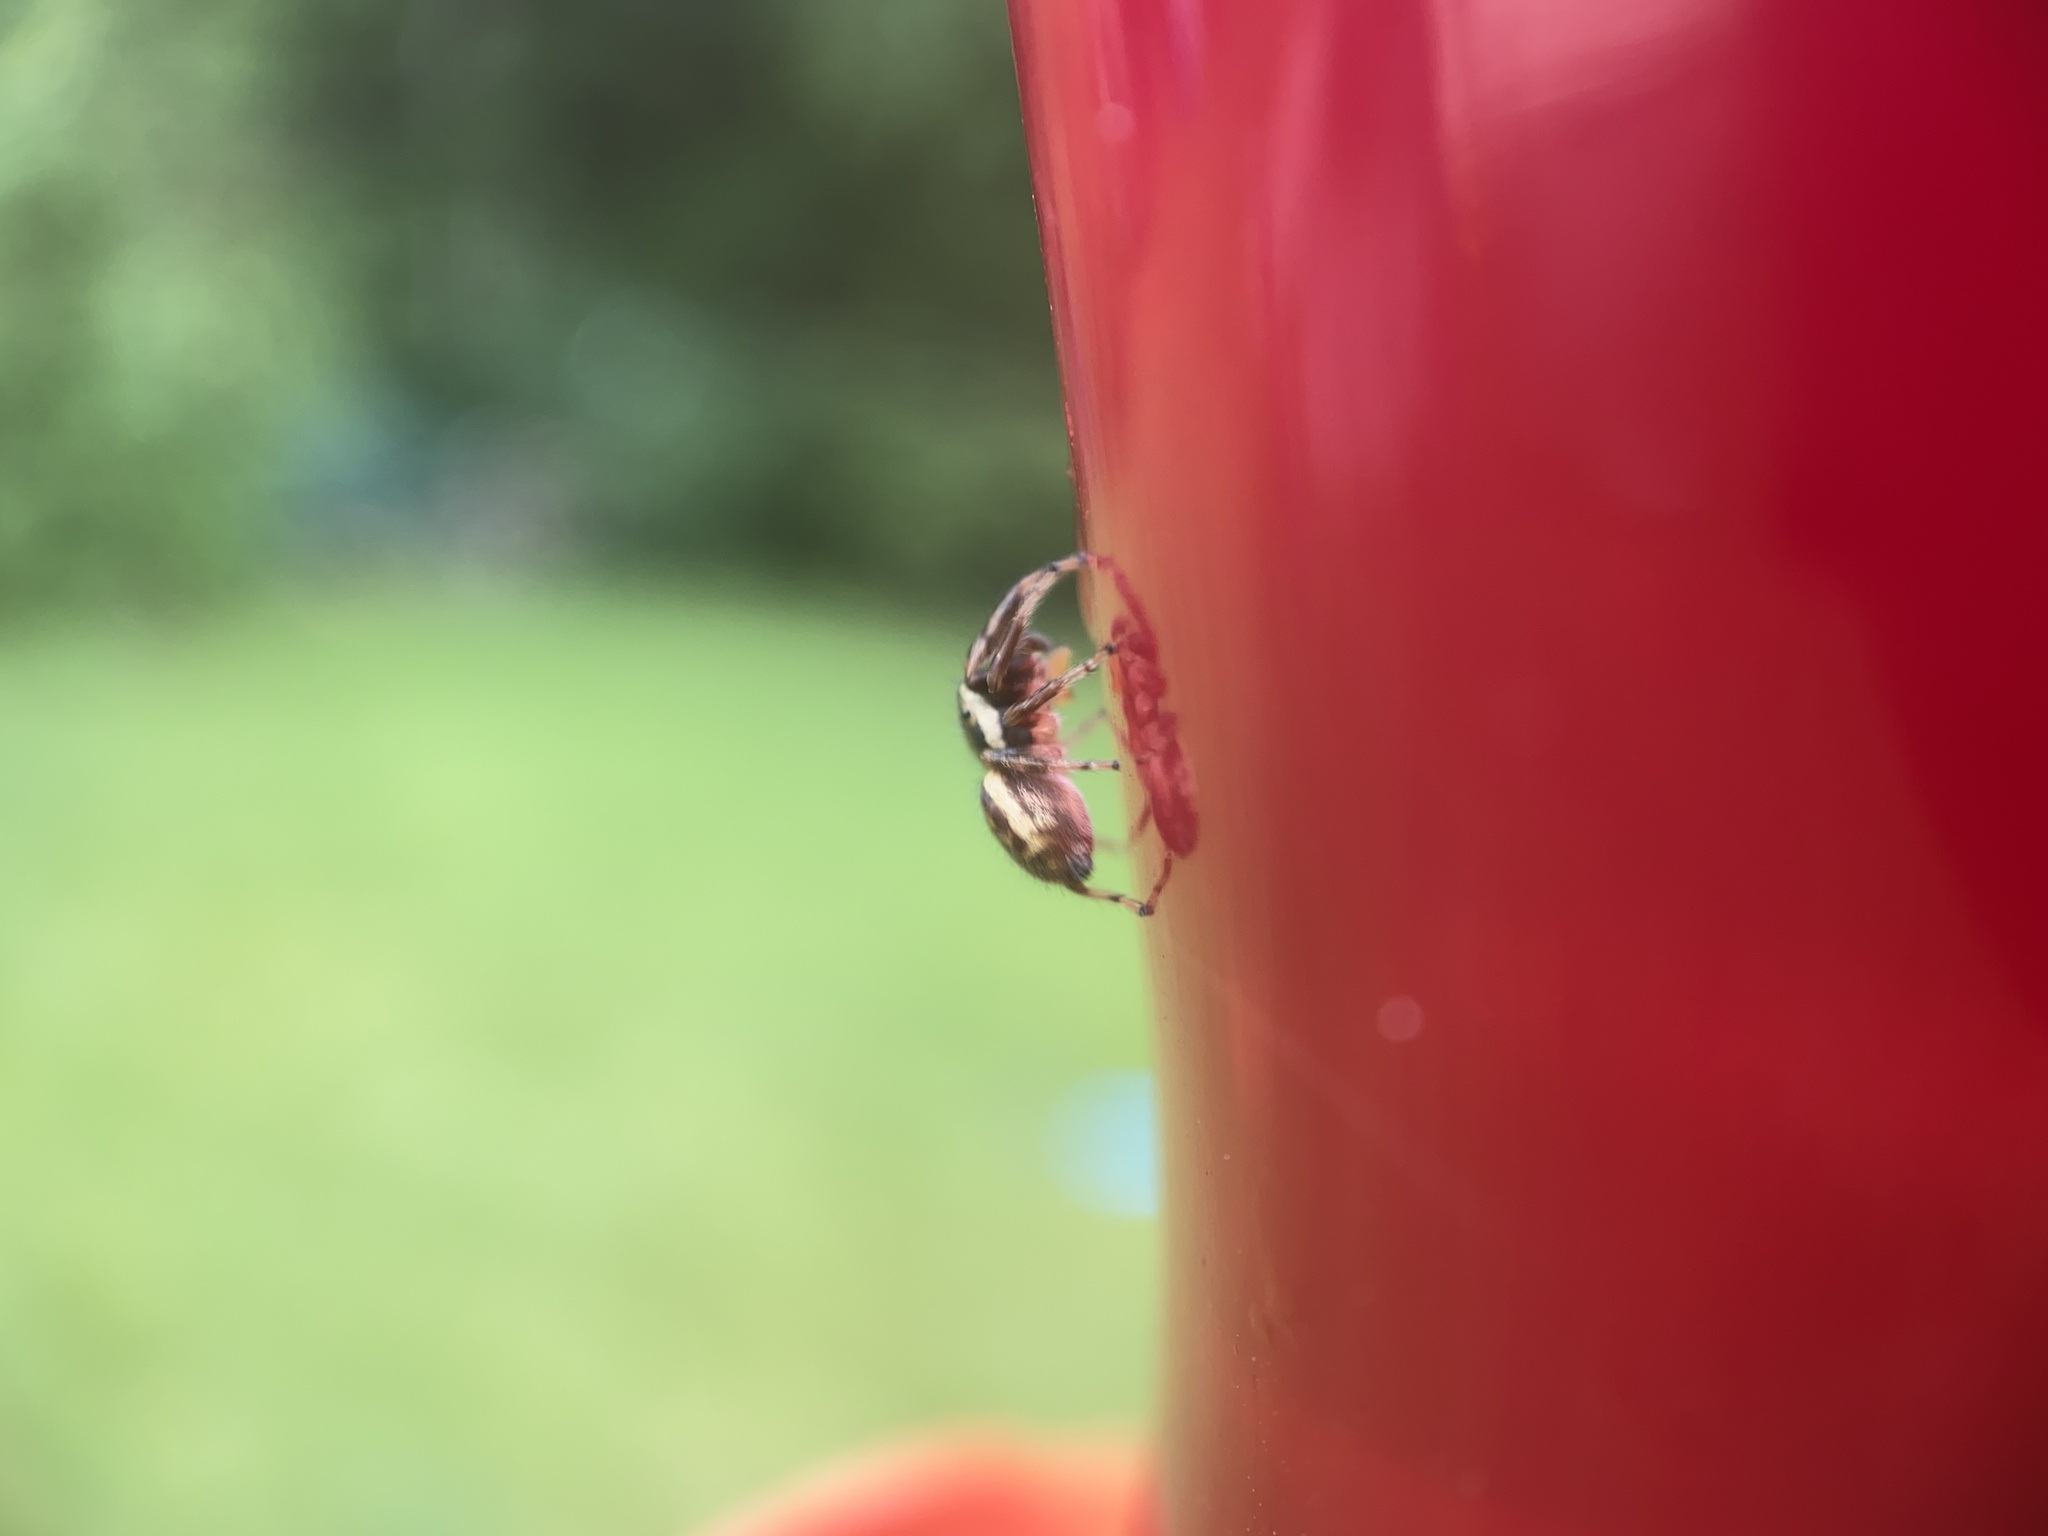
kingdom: Animalia
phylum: Arthropoda
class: Arachnida
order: Araneae
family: Salticidae
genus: Eris
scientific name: Eris militaris
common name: Bronze jumper
